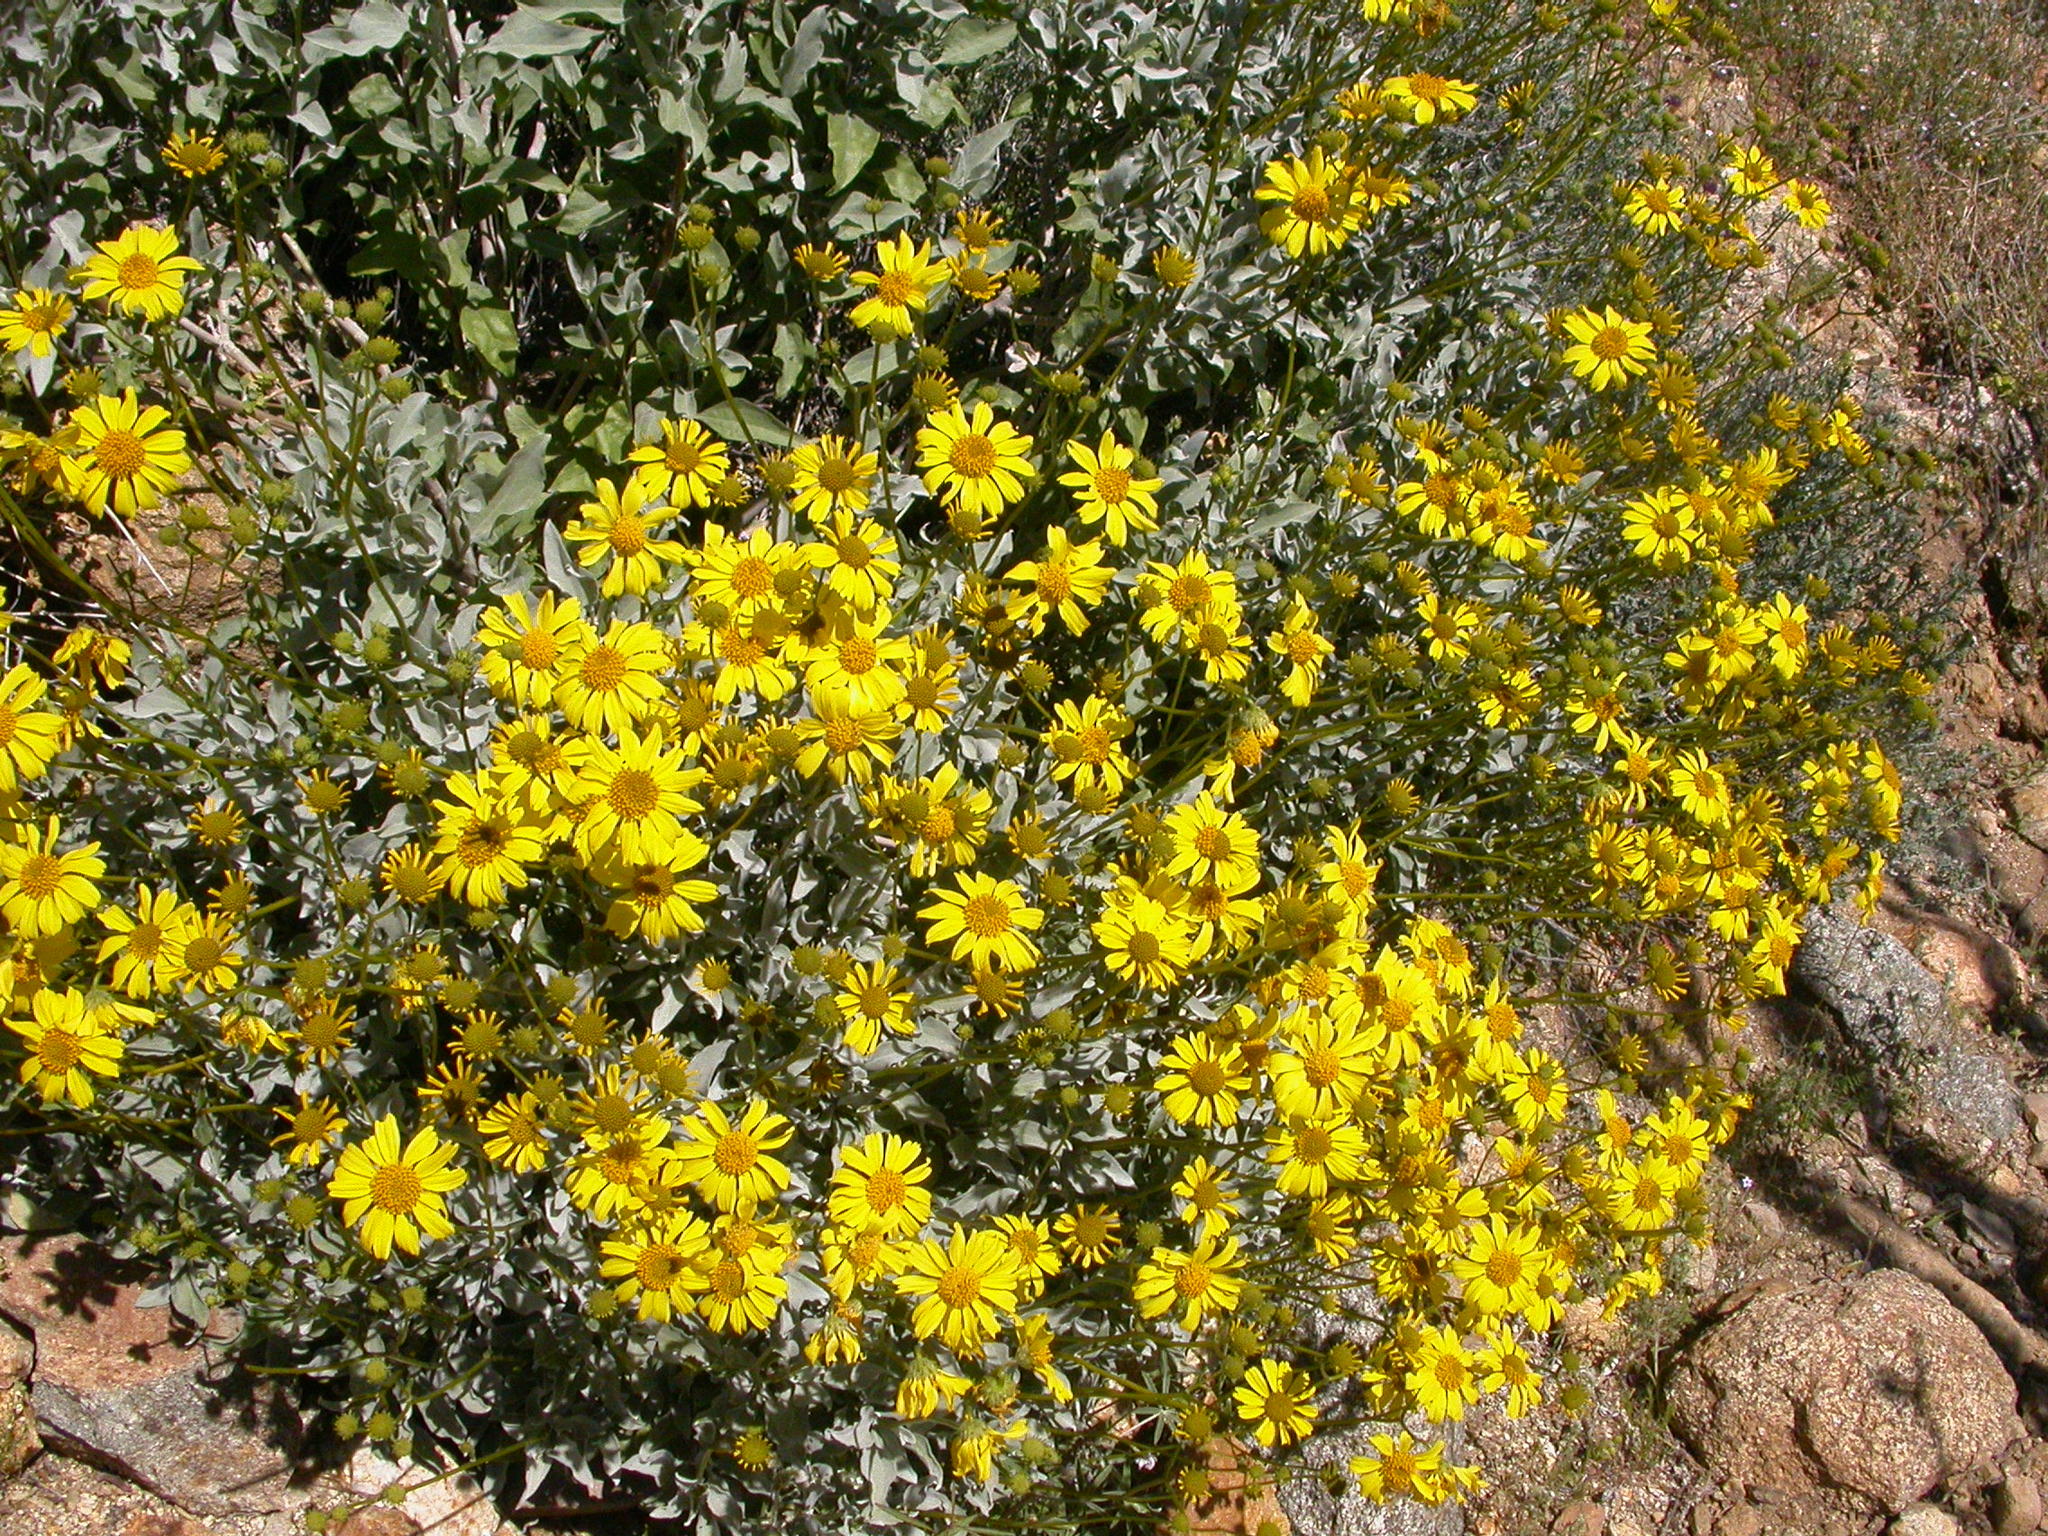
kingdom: Plantae
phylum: Tracheophyta
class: Magnoliopsida
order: Asterales
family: Asteraceae
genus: Encelia
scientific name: Encelia farinosa
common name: Brittlebush
